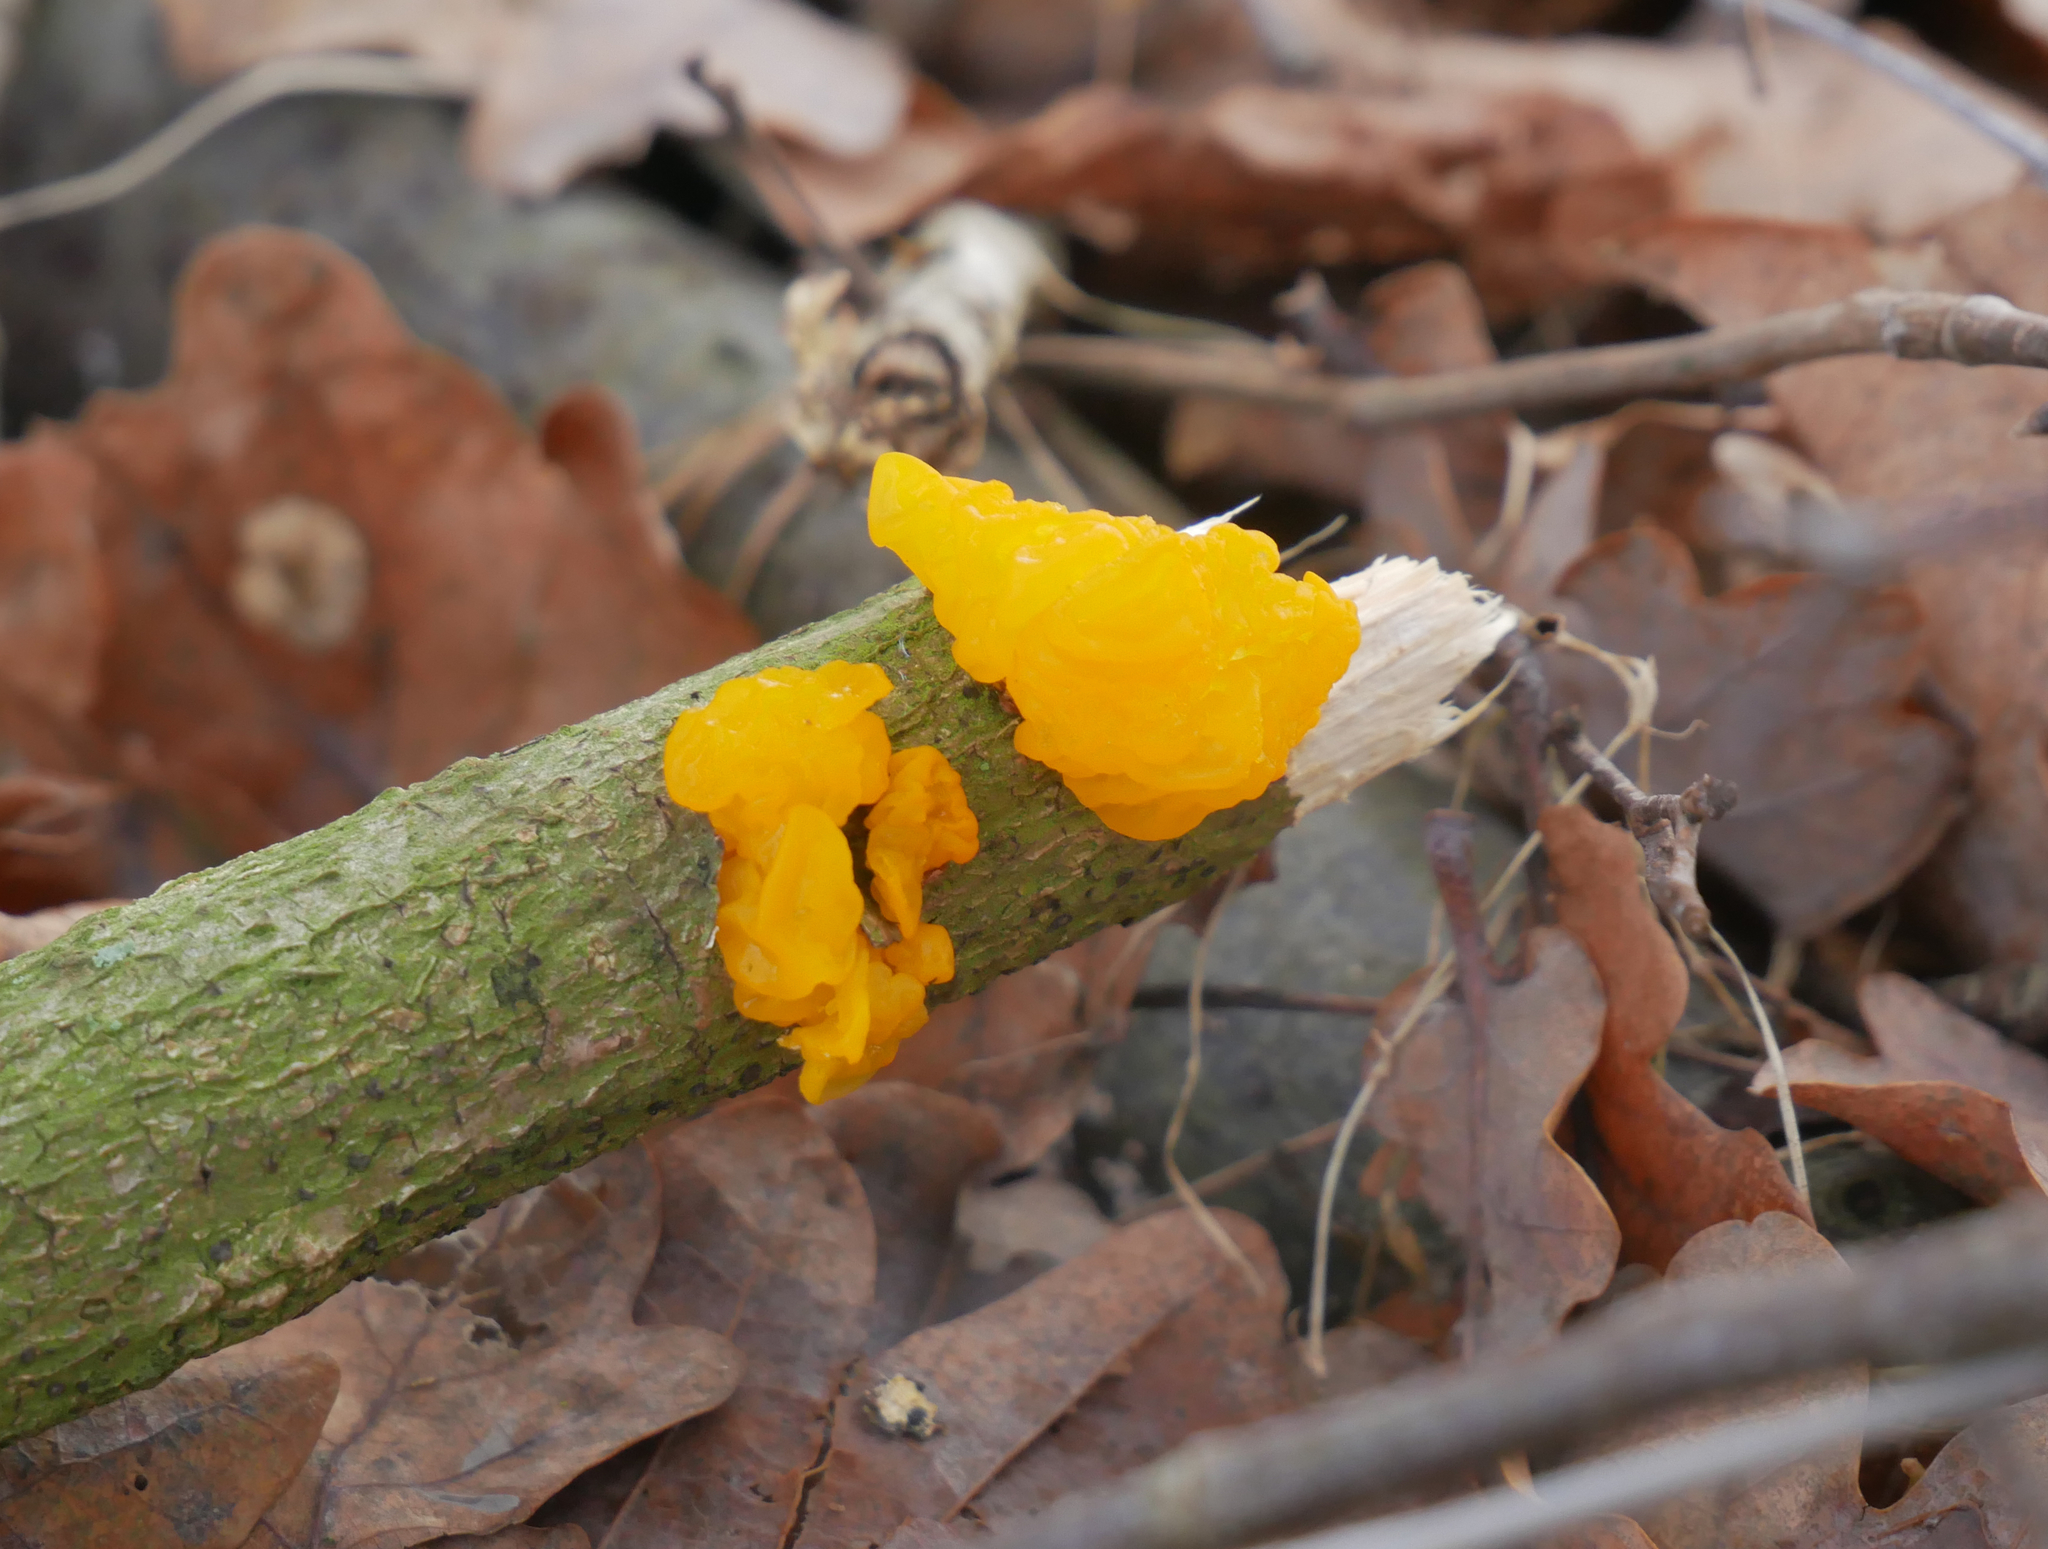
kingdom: Fungi
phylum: Basidiomycota
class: Tremellomycetes
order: Tremellales
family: Tremellaceae
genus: Tremella
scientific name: Tremella mesenterica
